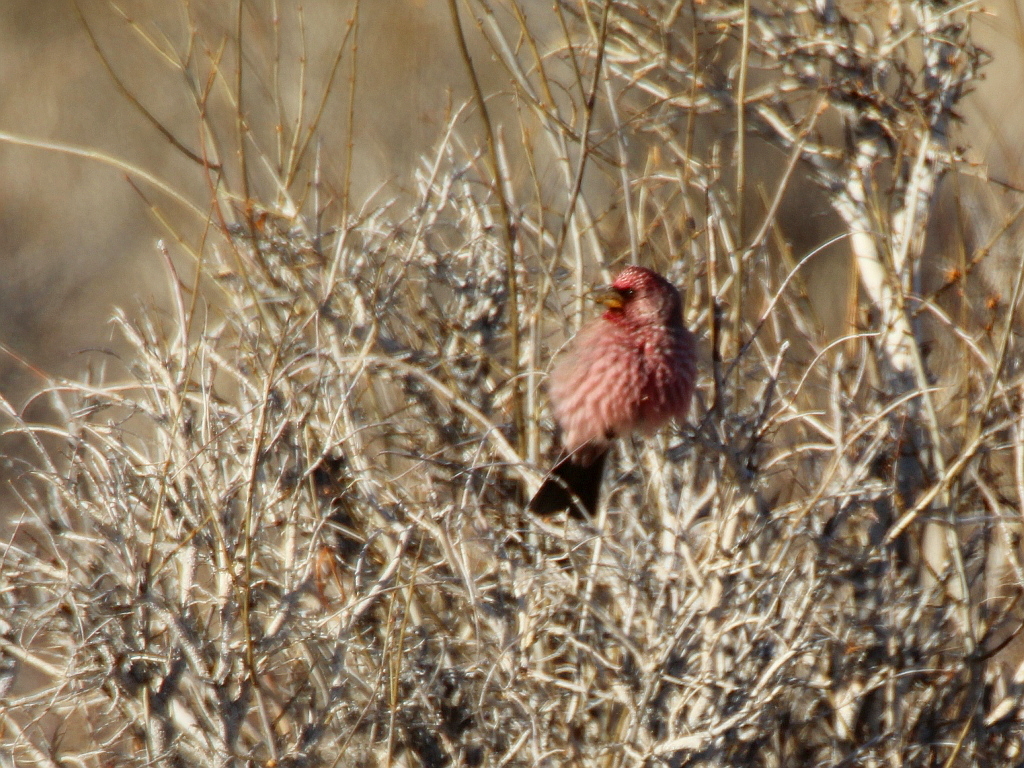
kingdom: Animalia
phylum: Chordata
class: Aves
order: Passeriformes
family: Fringillidae
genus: Carpodacus
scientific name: Carpodacus rubicilla
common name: Great rosefinch
